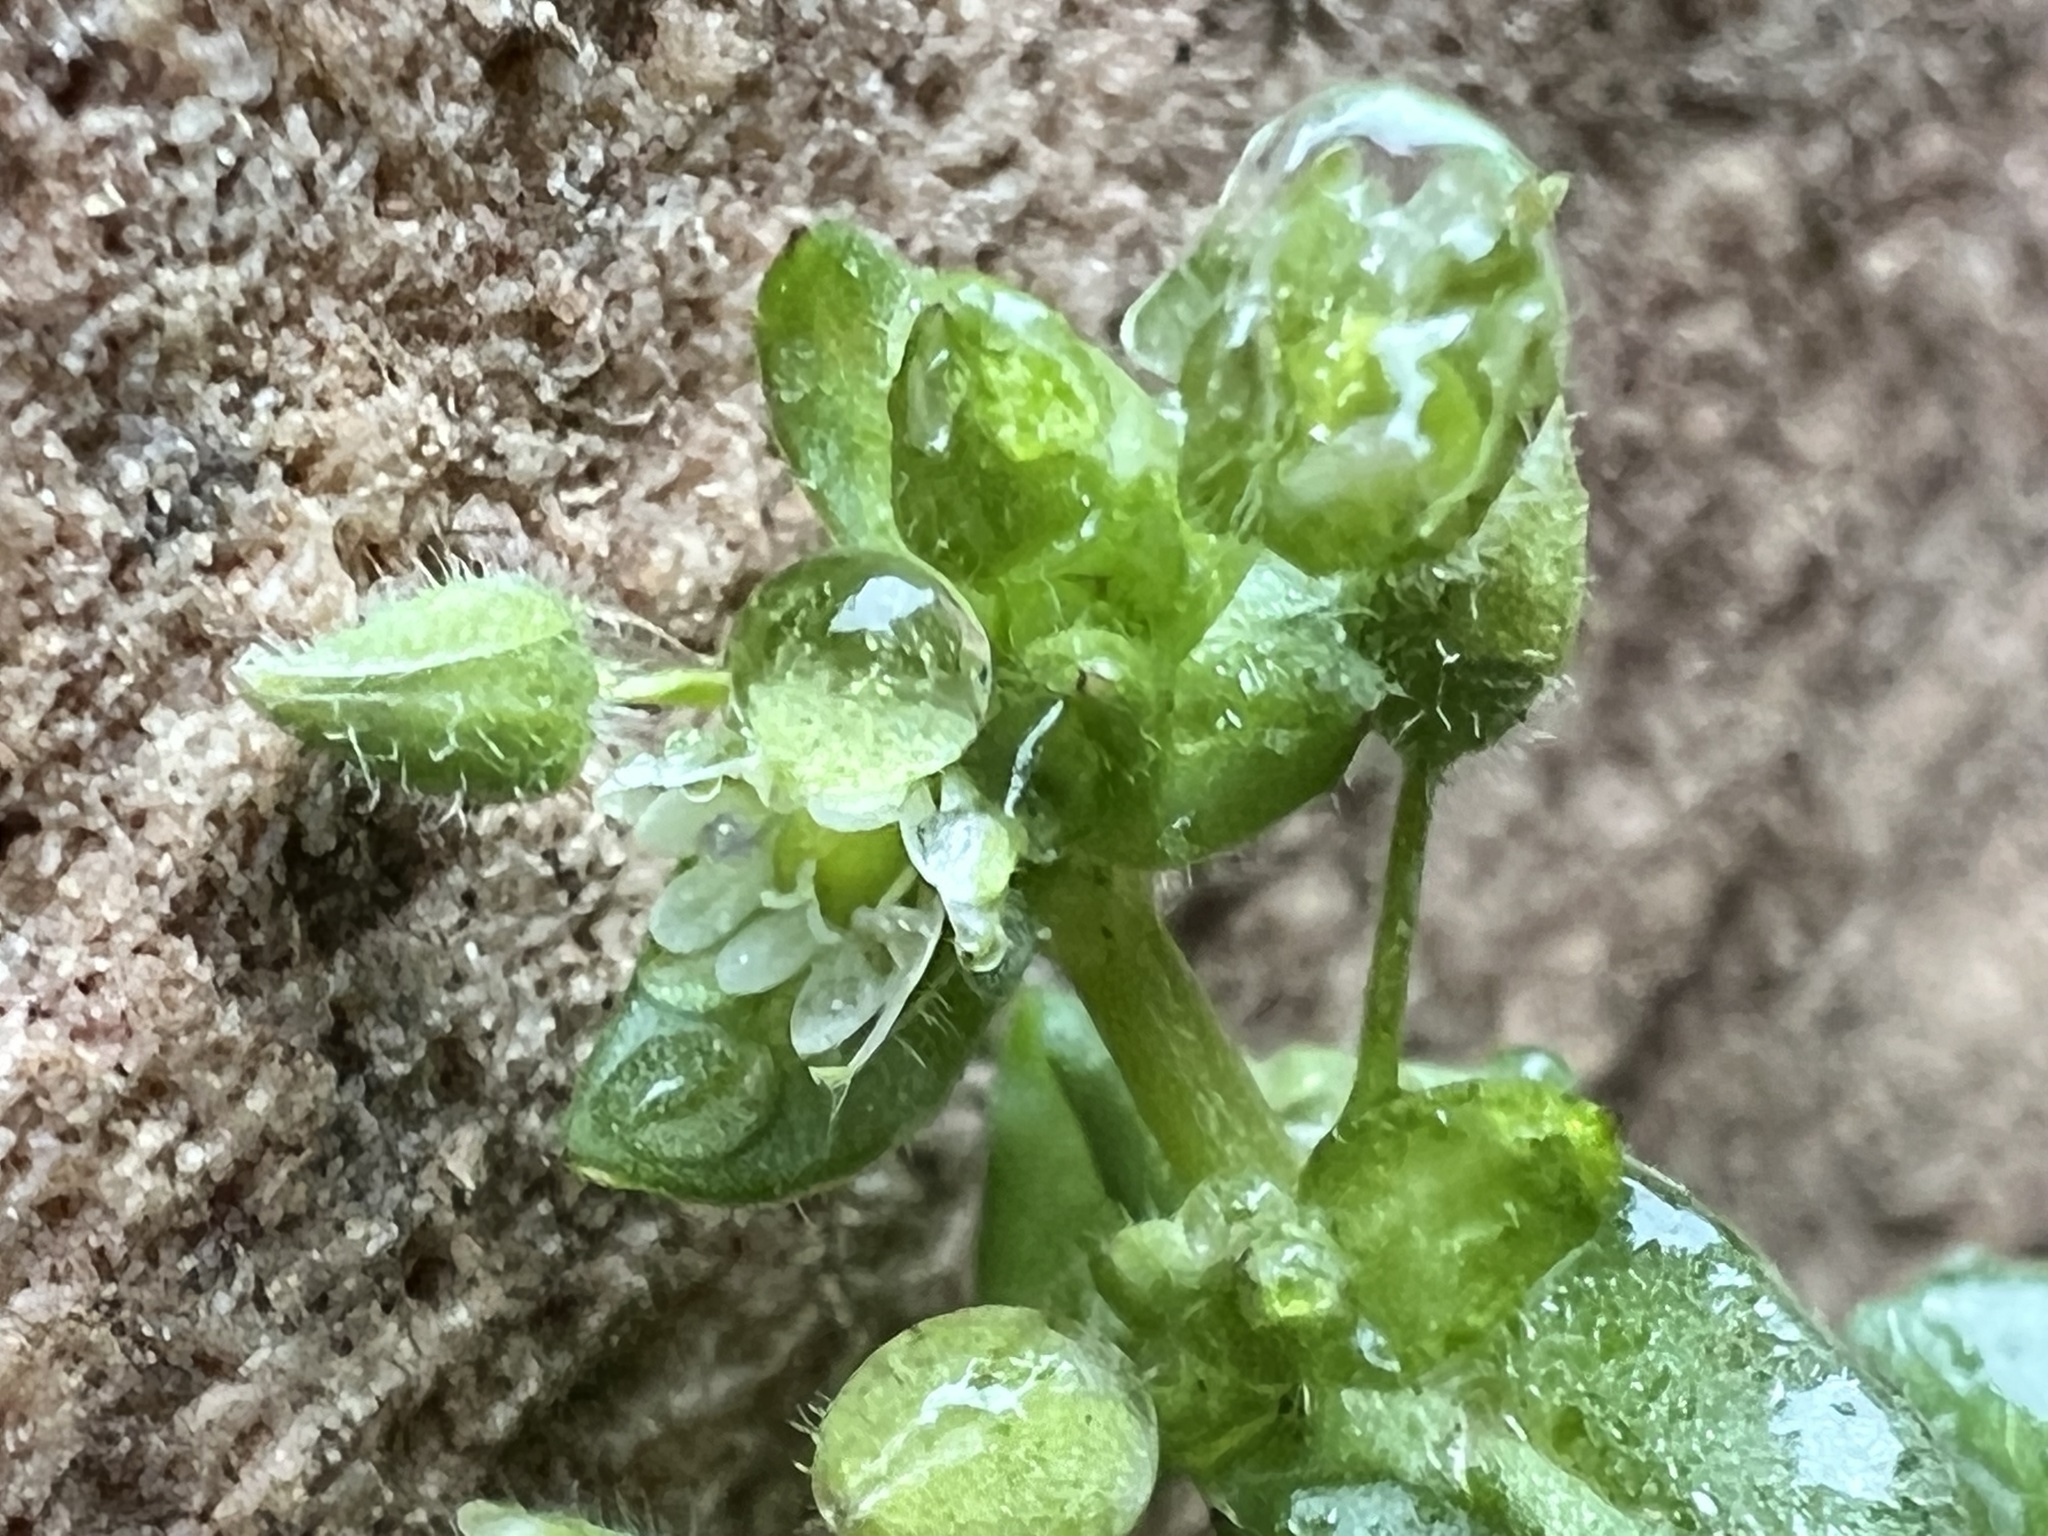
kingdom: Plantae
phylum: Tracheophyta
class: Magnoliopsida
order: Caryophyllales
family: Caryophyllaceae
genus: Stellaria
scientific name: Stellaria media
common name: Common chickweed
